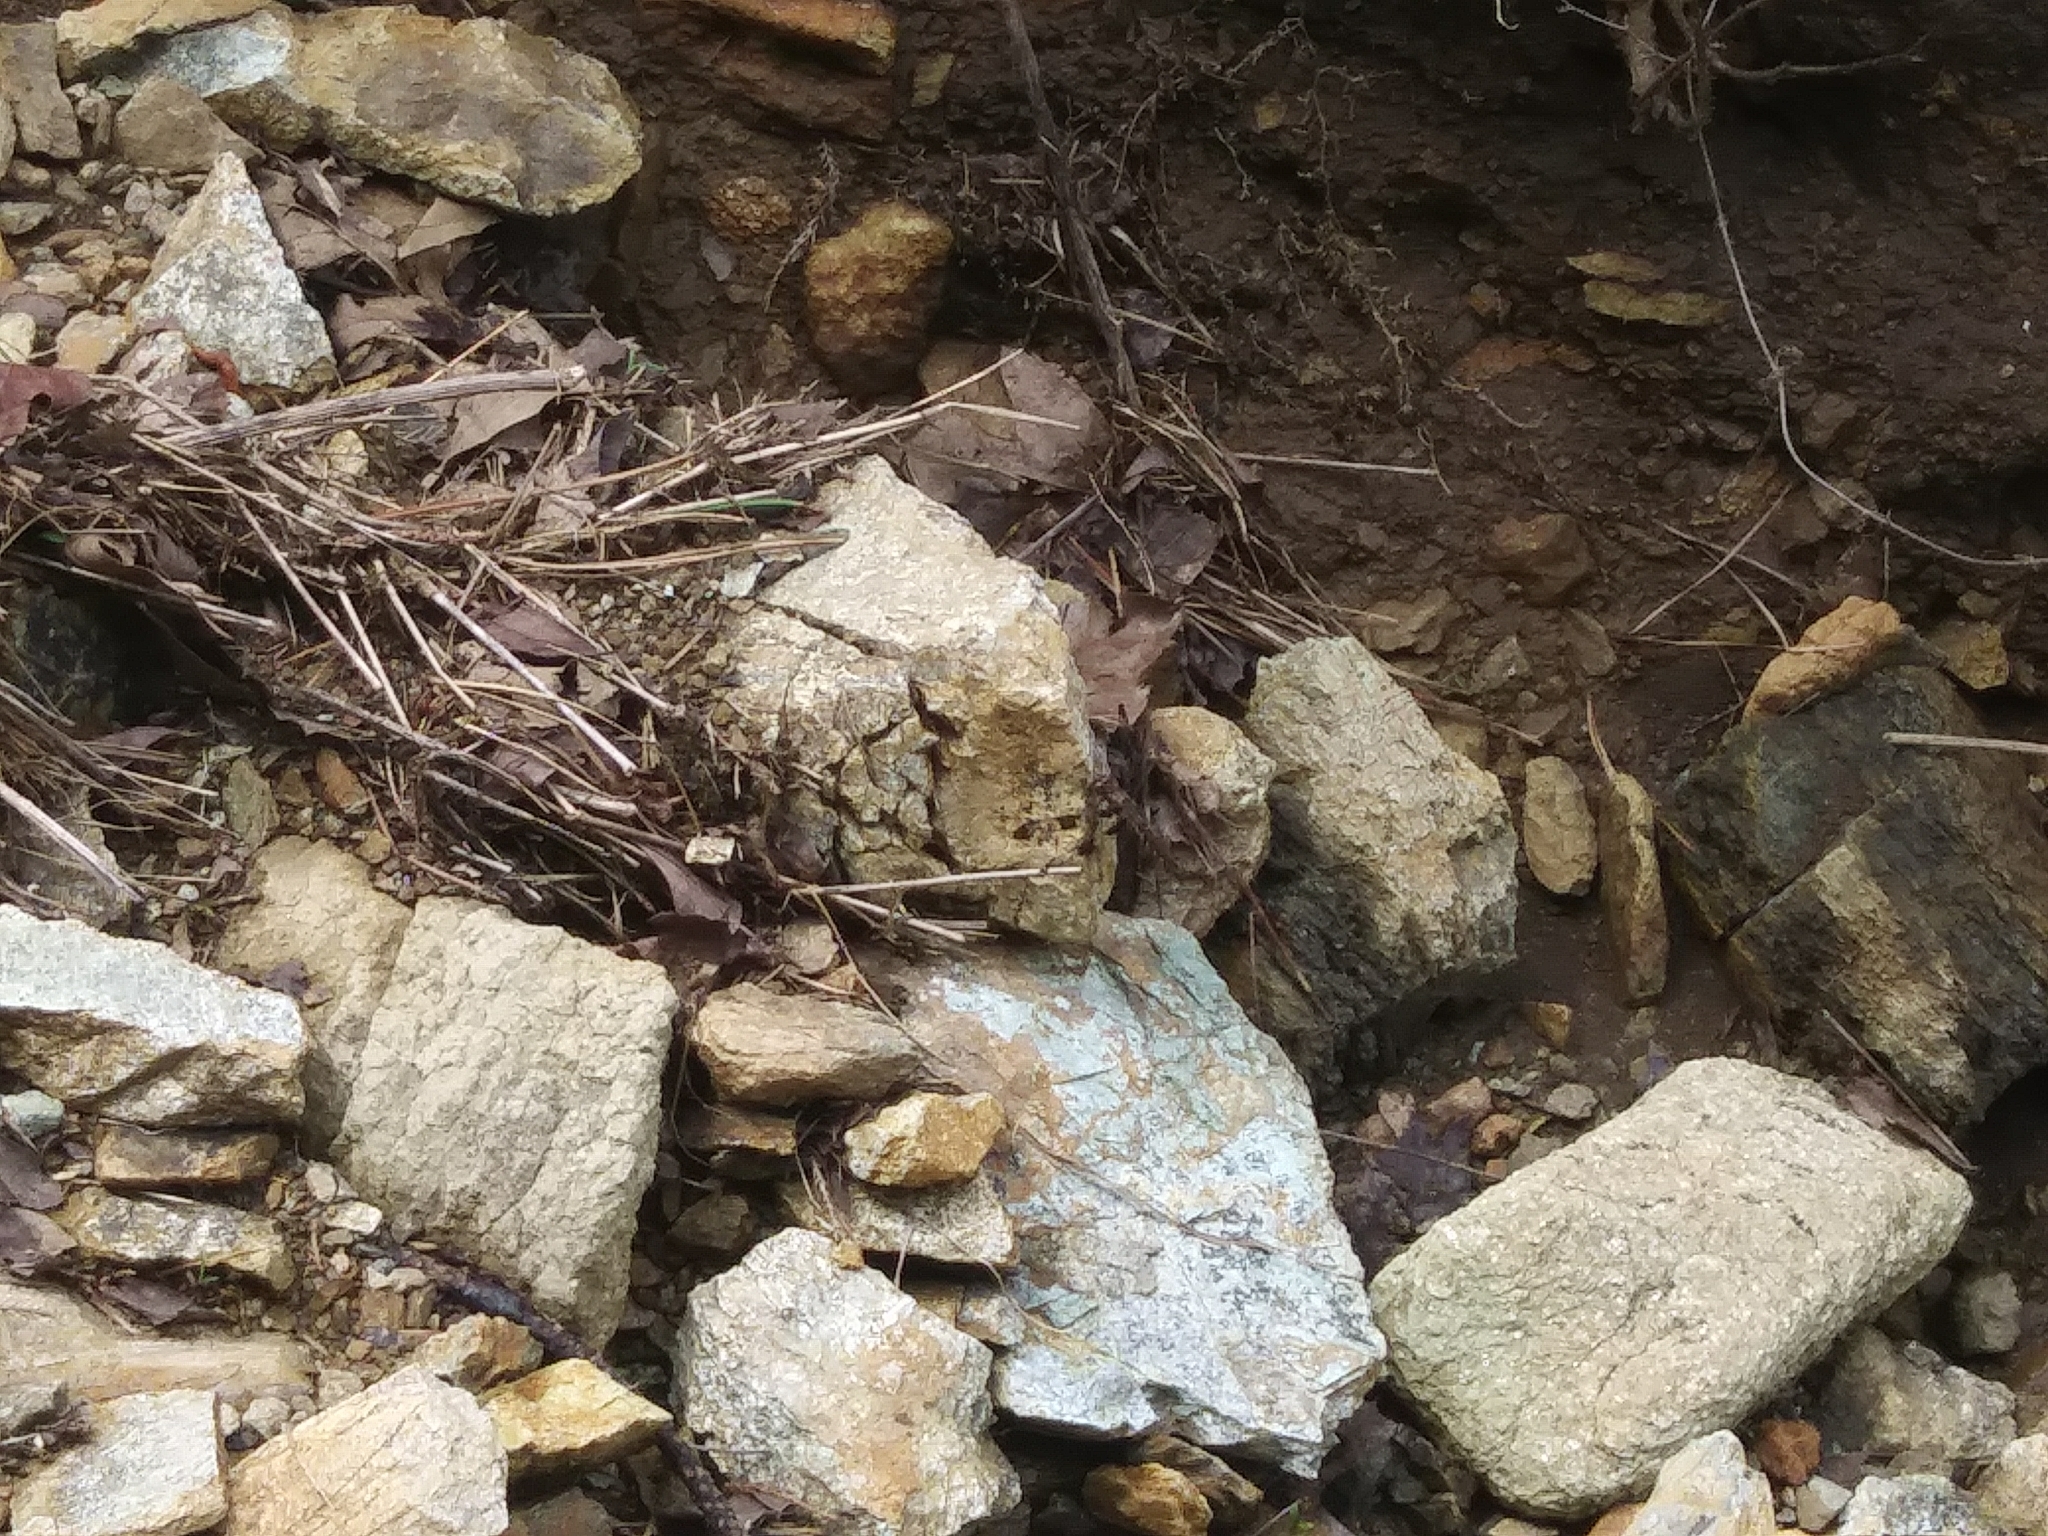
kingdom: Animalia
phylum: Arthropoda
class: Insecta
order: Odonata
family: Libellulidae
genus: Plathemis
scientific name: Plathemis lydia
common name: Common whitetail
